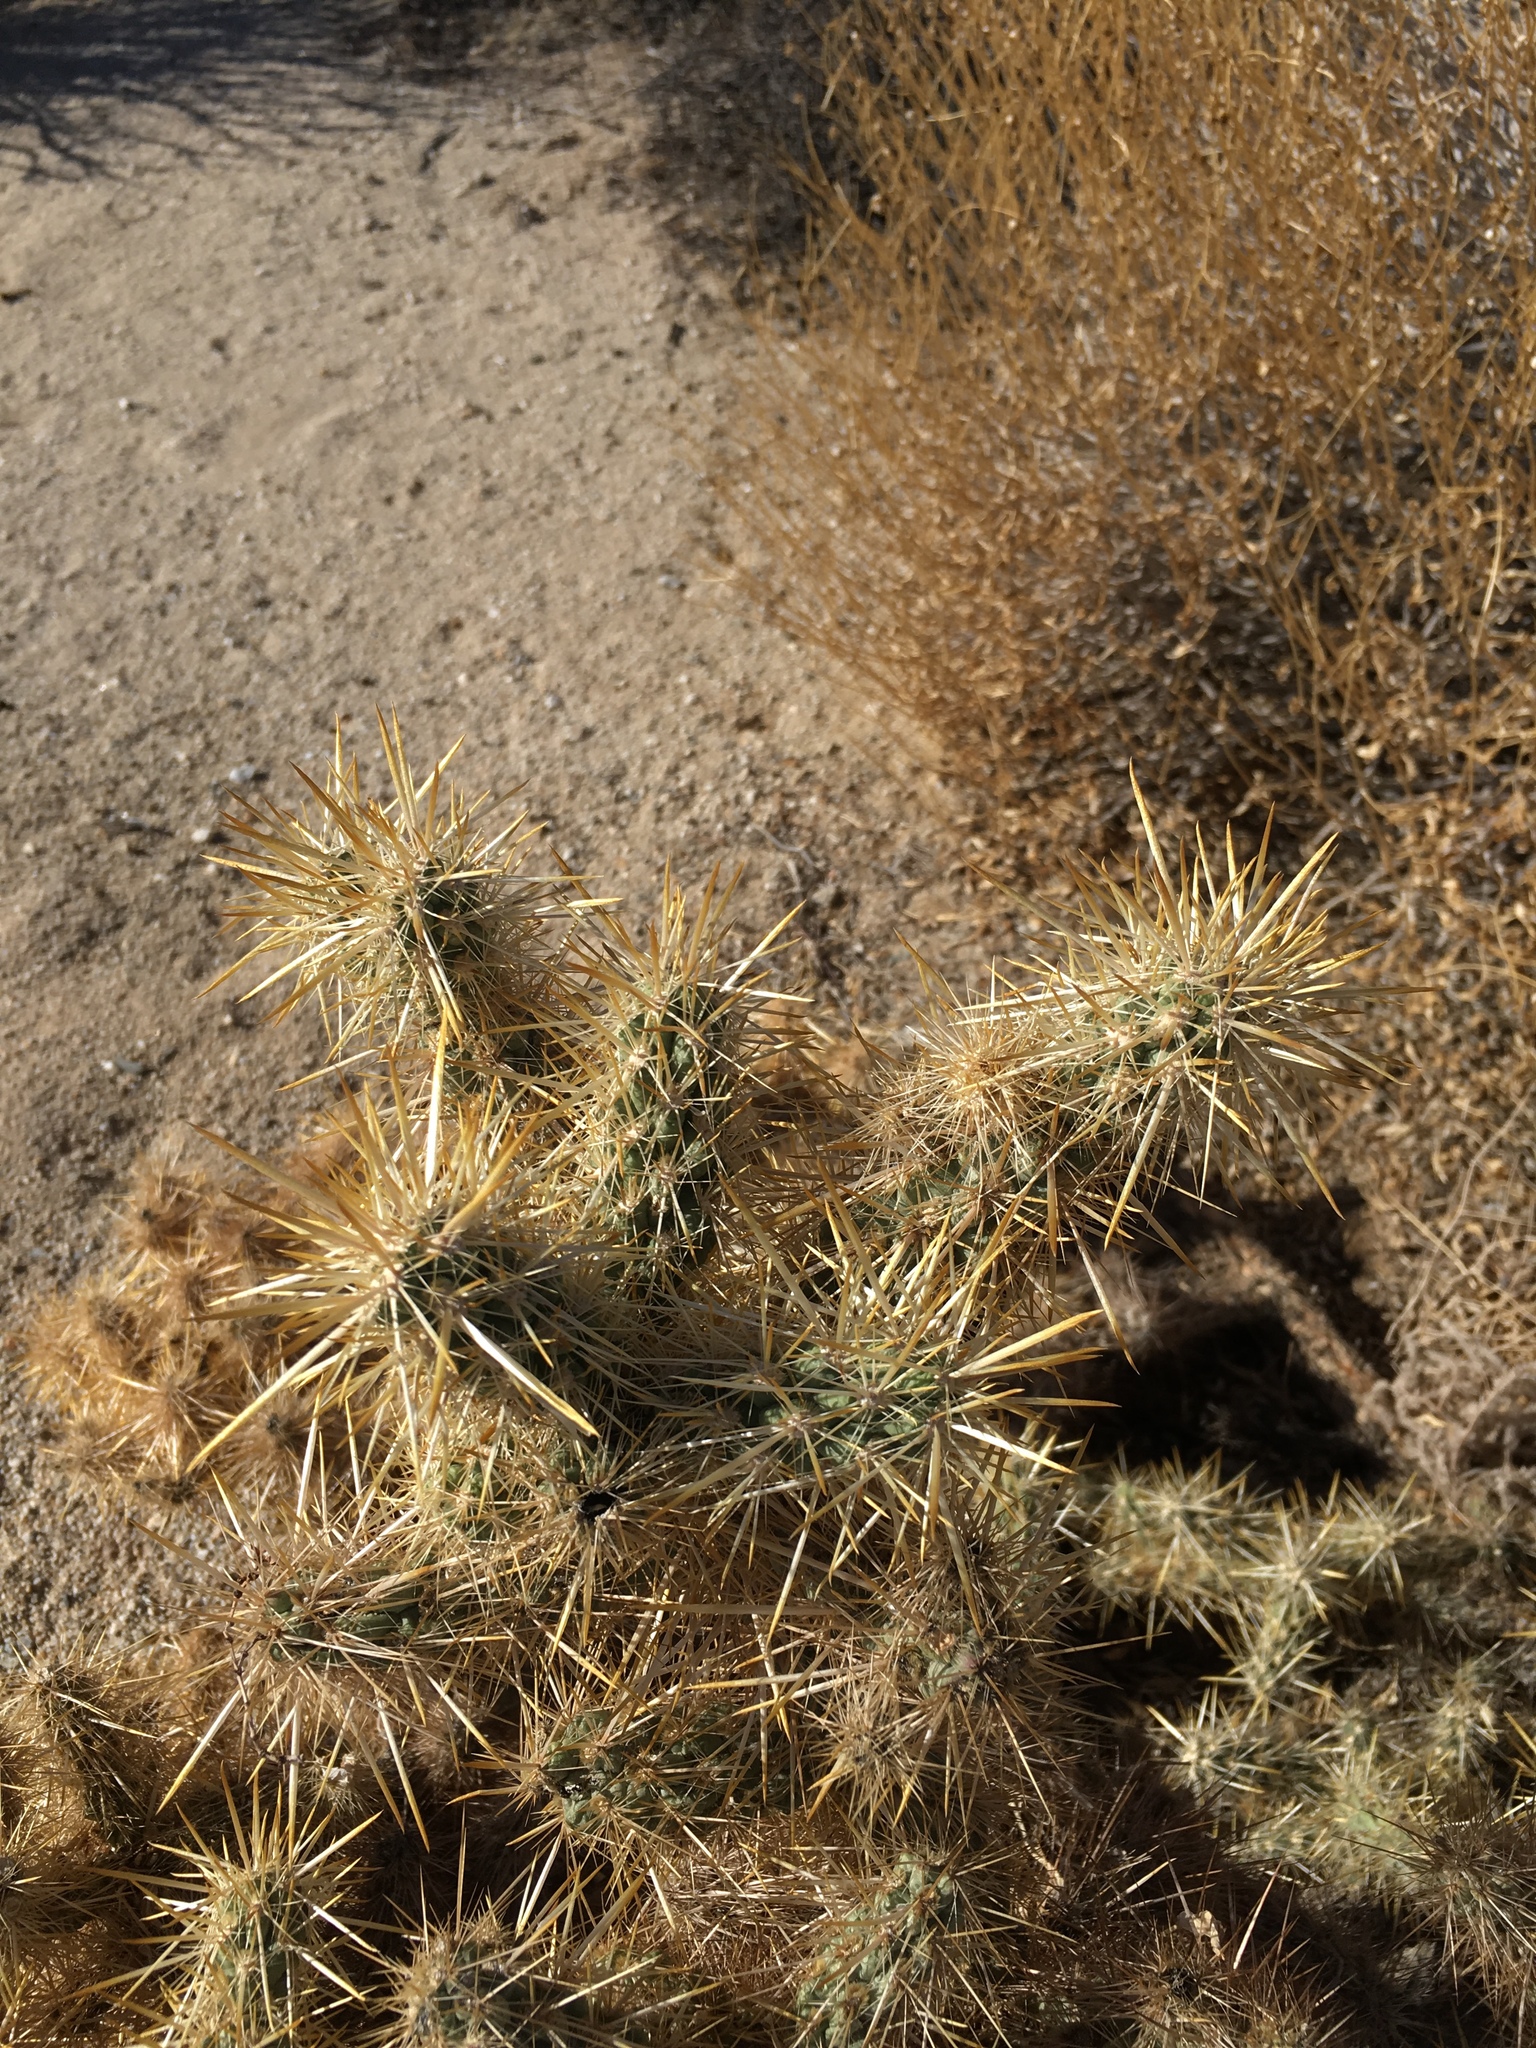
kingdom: Plantae
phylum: Tracheophyta
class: Magnoliopsida
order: Caryophyllales
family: Cactaceae
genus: Cylindropuntia
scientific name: Cylindropuntia echinocarpa
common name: Ground cholla
